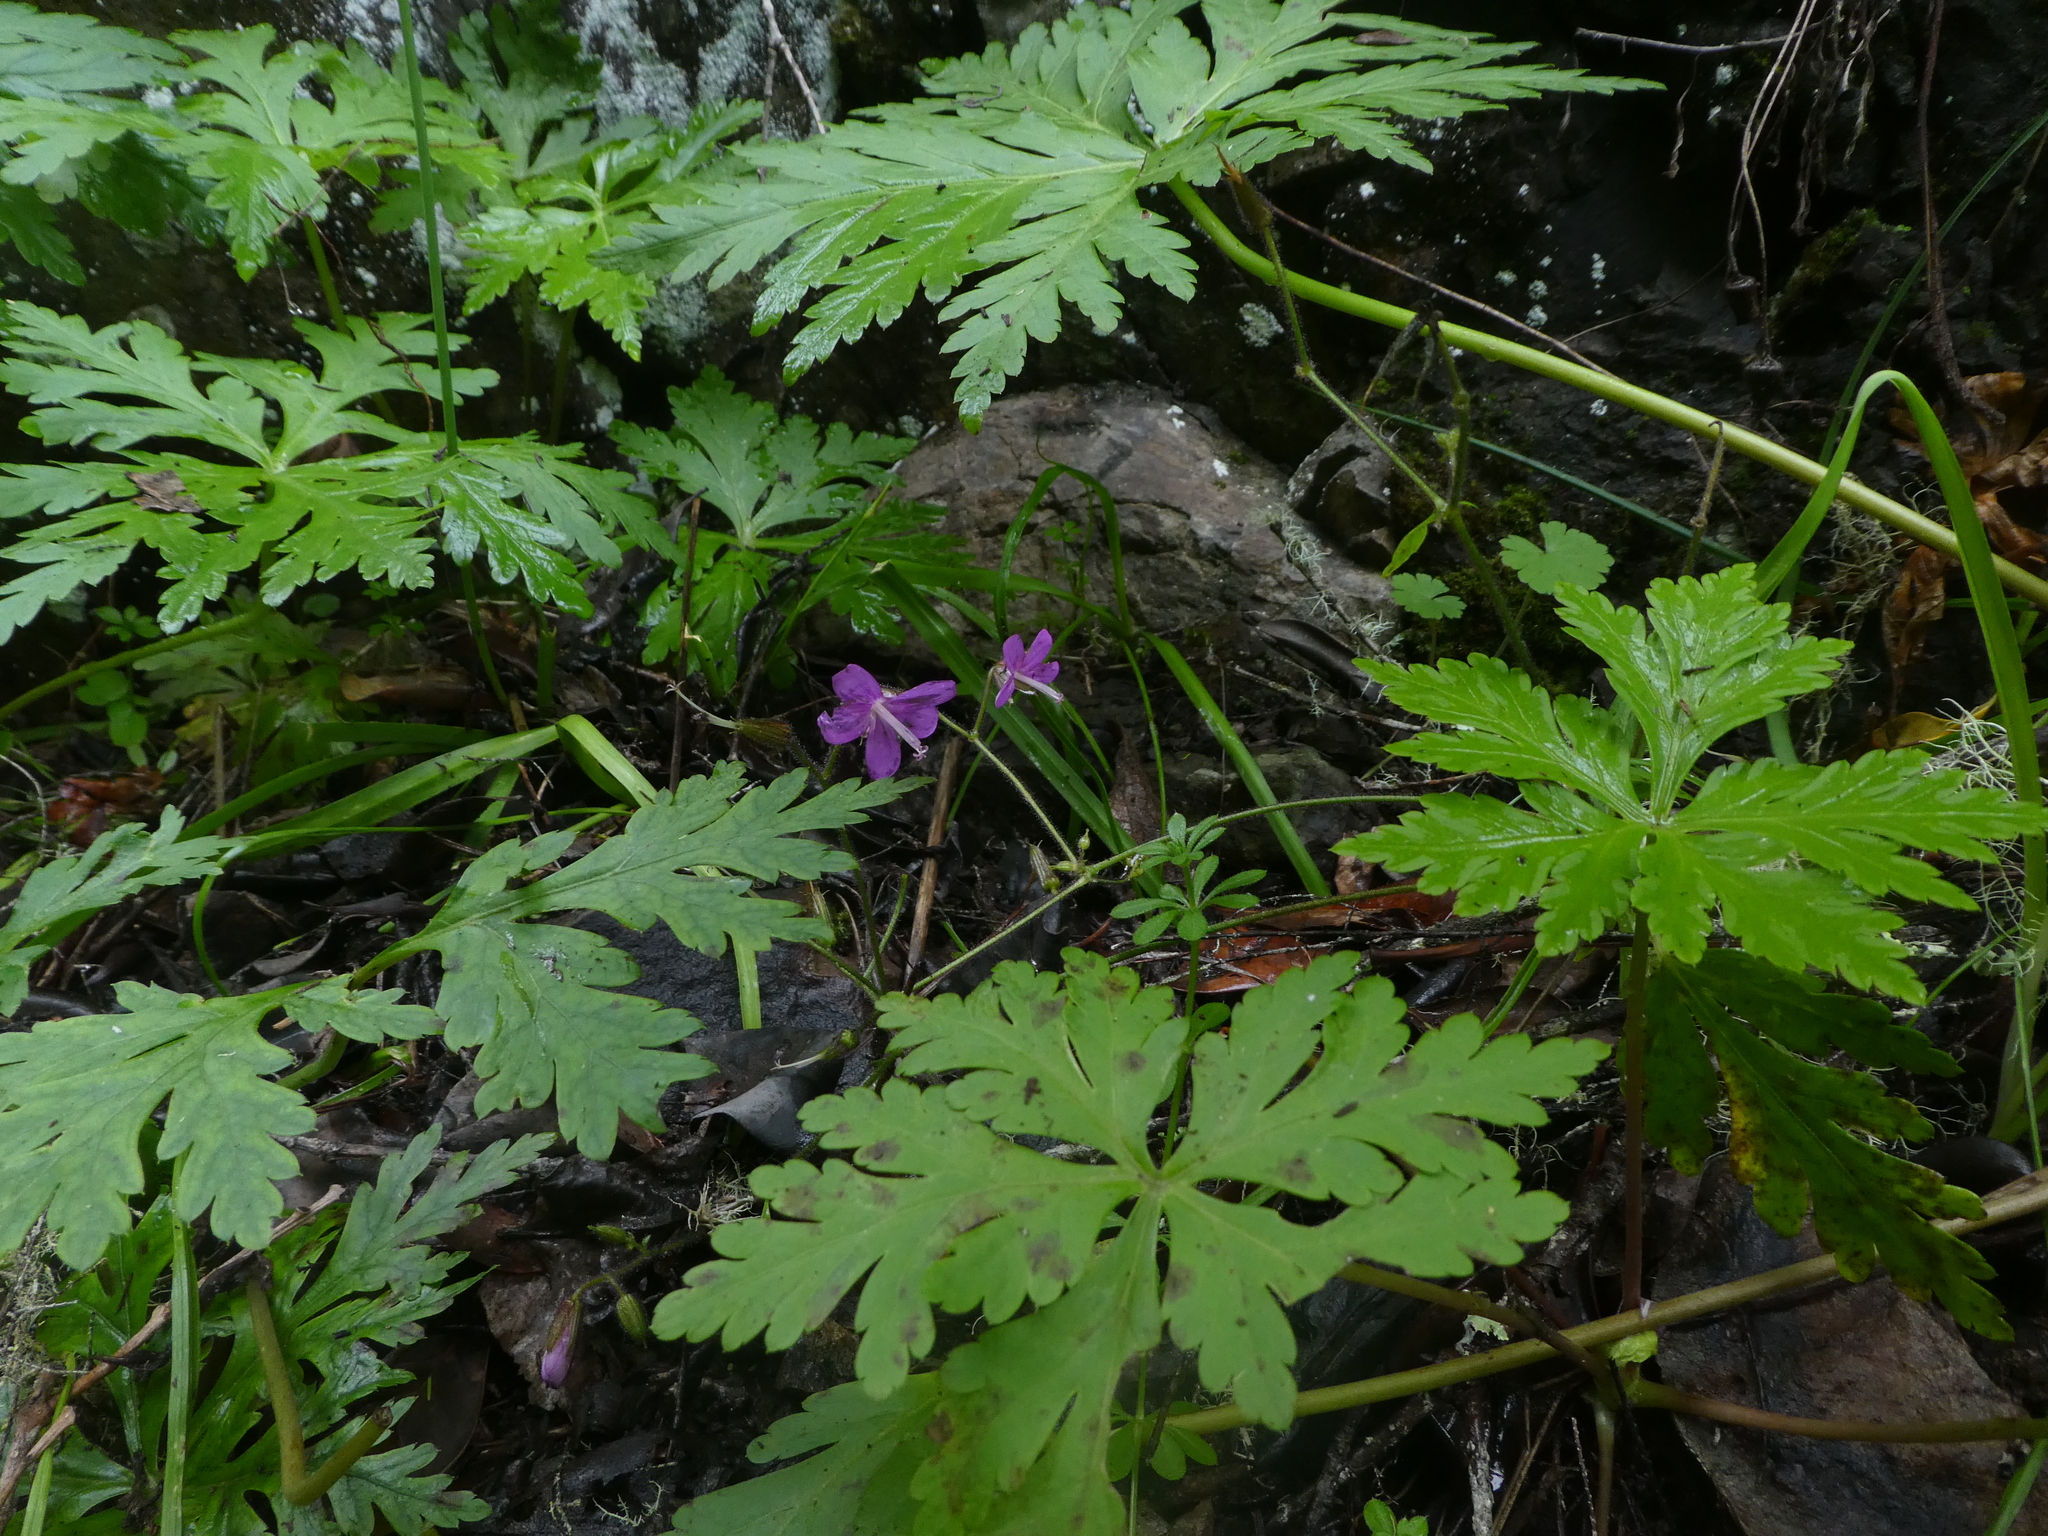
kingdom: Plantae
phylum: Tracheophyta
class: Magnoliopsida
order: Geraniales
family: Geraniaceae
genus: Geranium
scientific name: Geranium reuteri
